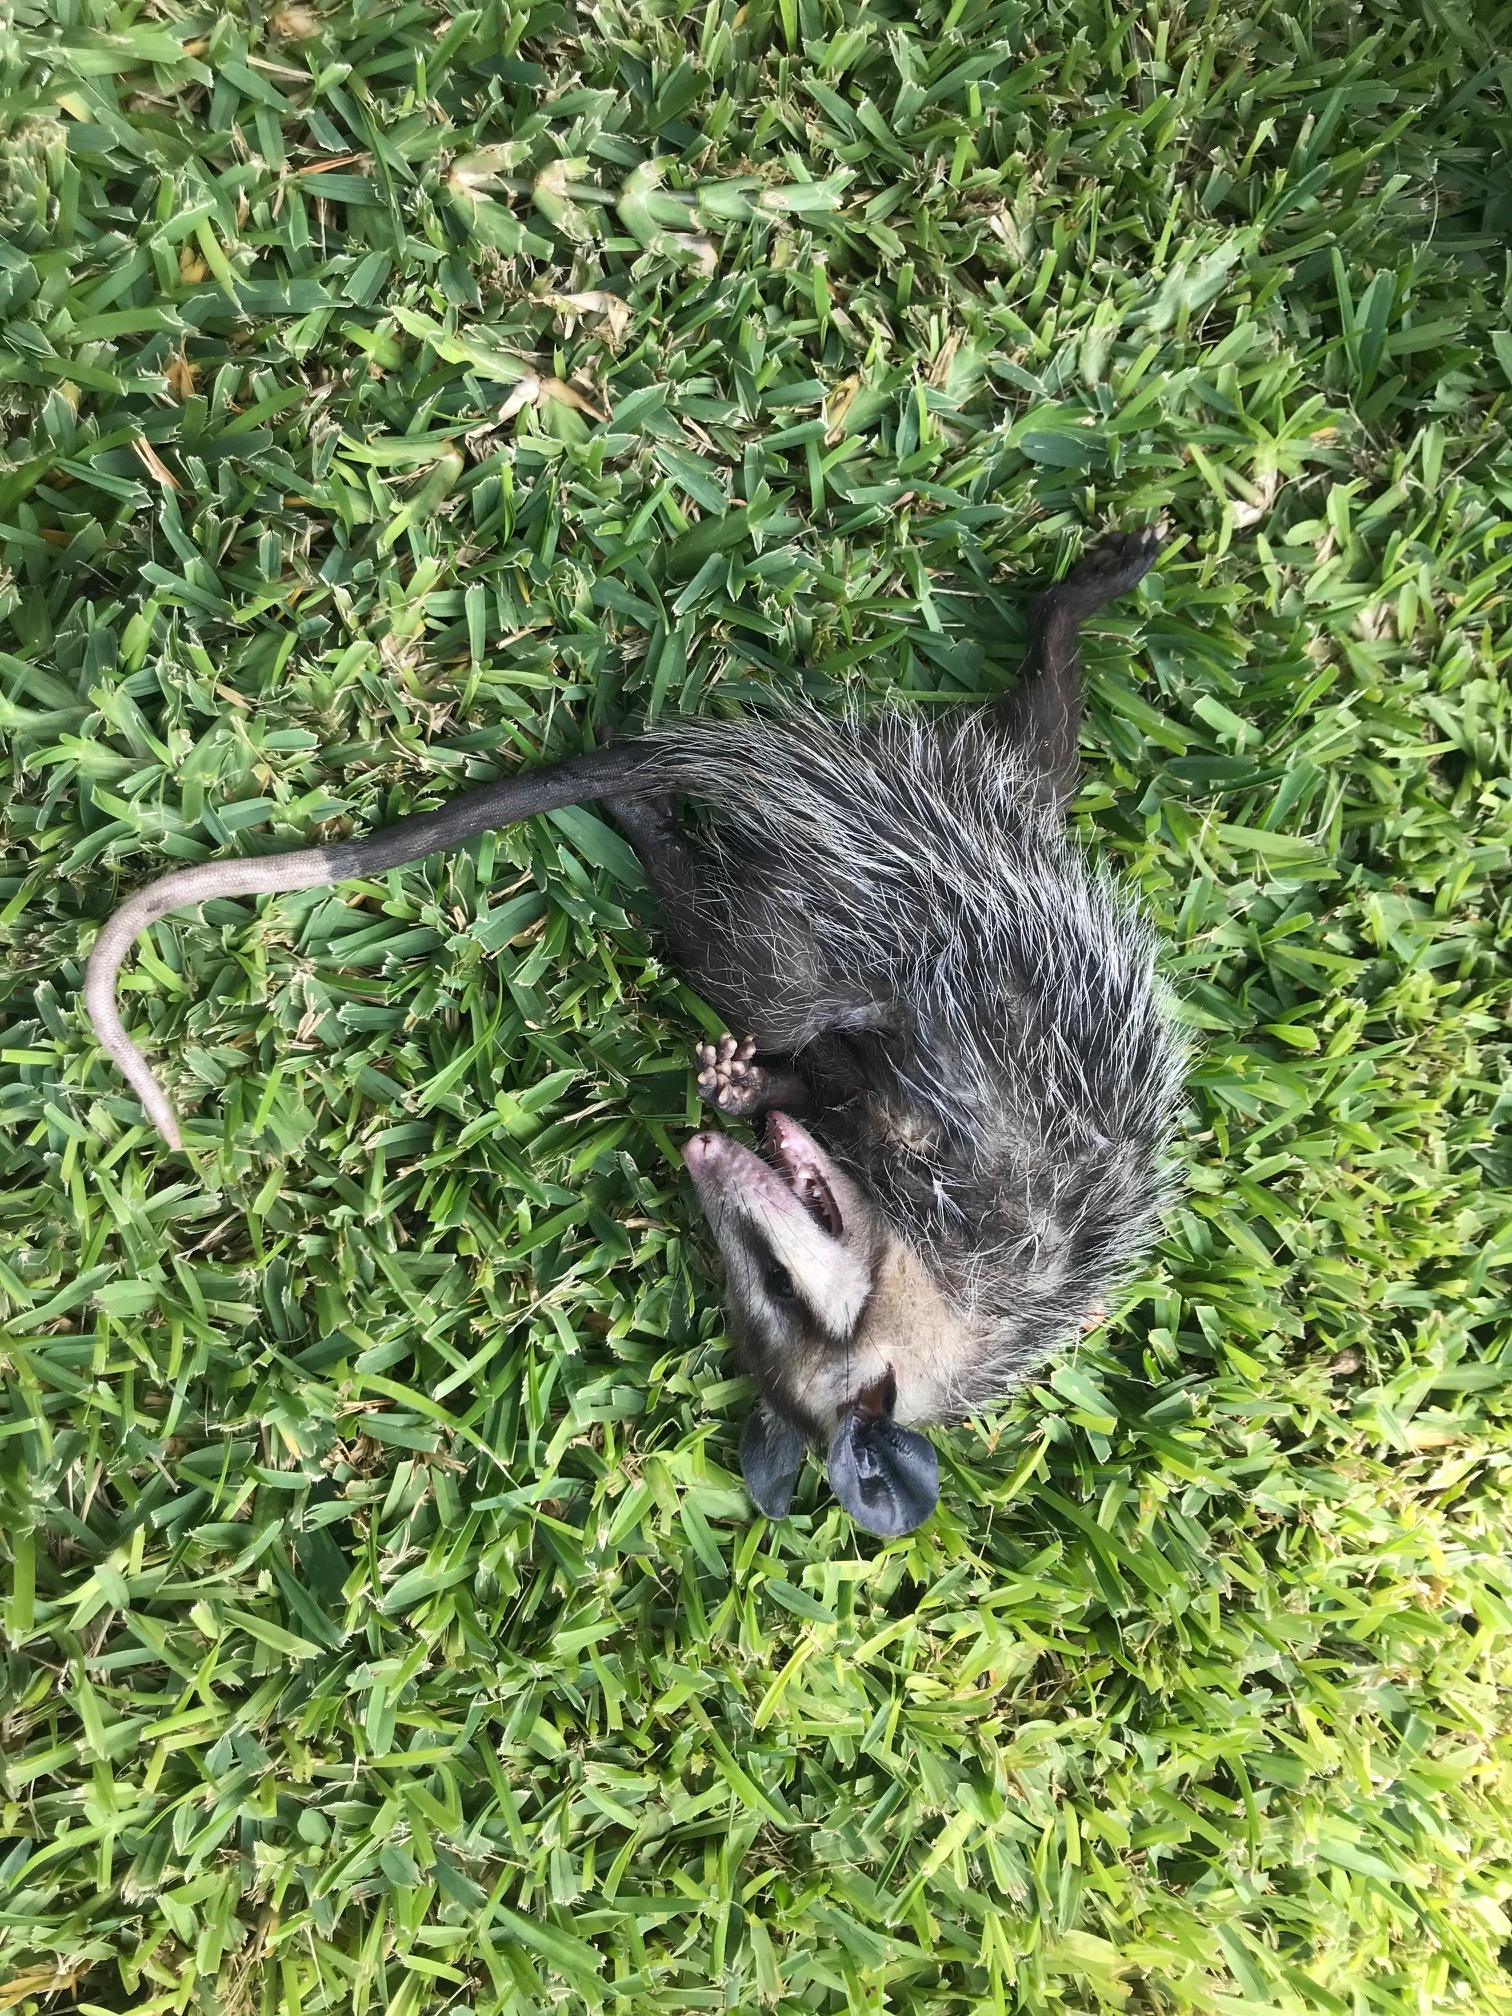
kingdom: Animalia
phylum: Chordata
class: Mammalia
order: Didelphimorphia
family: Didelphidae
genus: Didelphis
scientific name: Didelphis virginiana
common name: Virginia opossum
